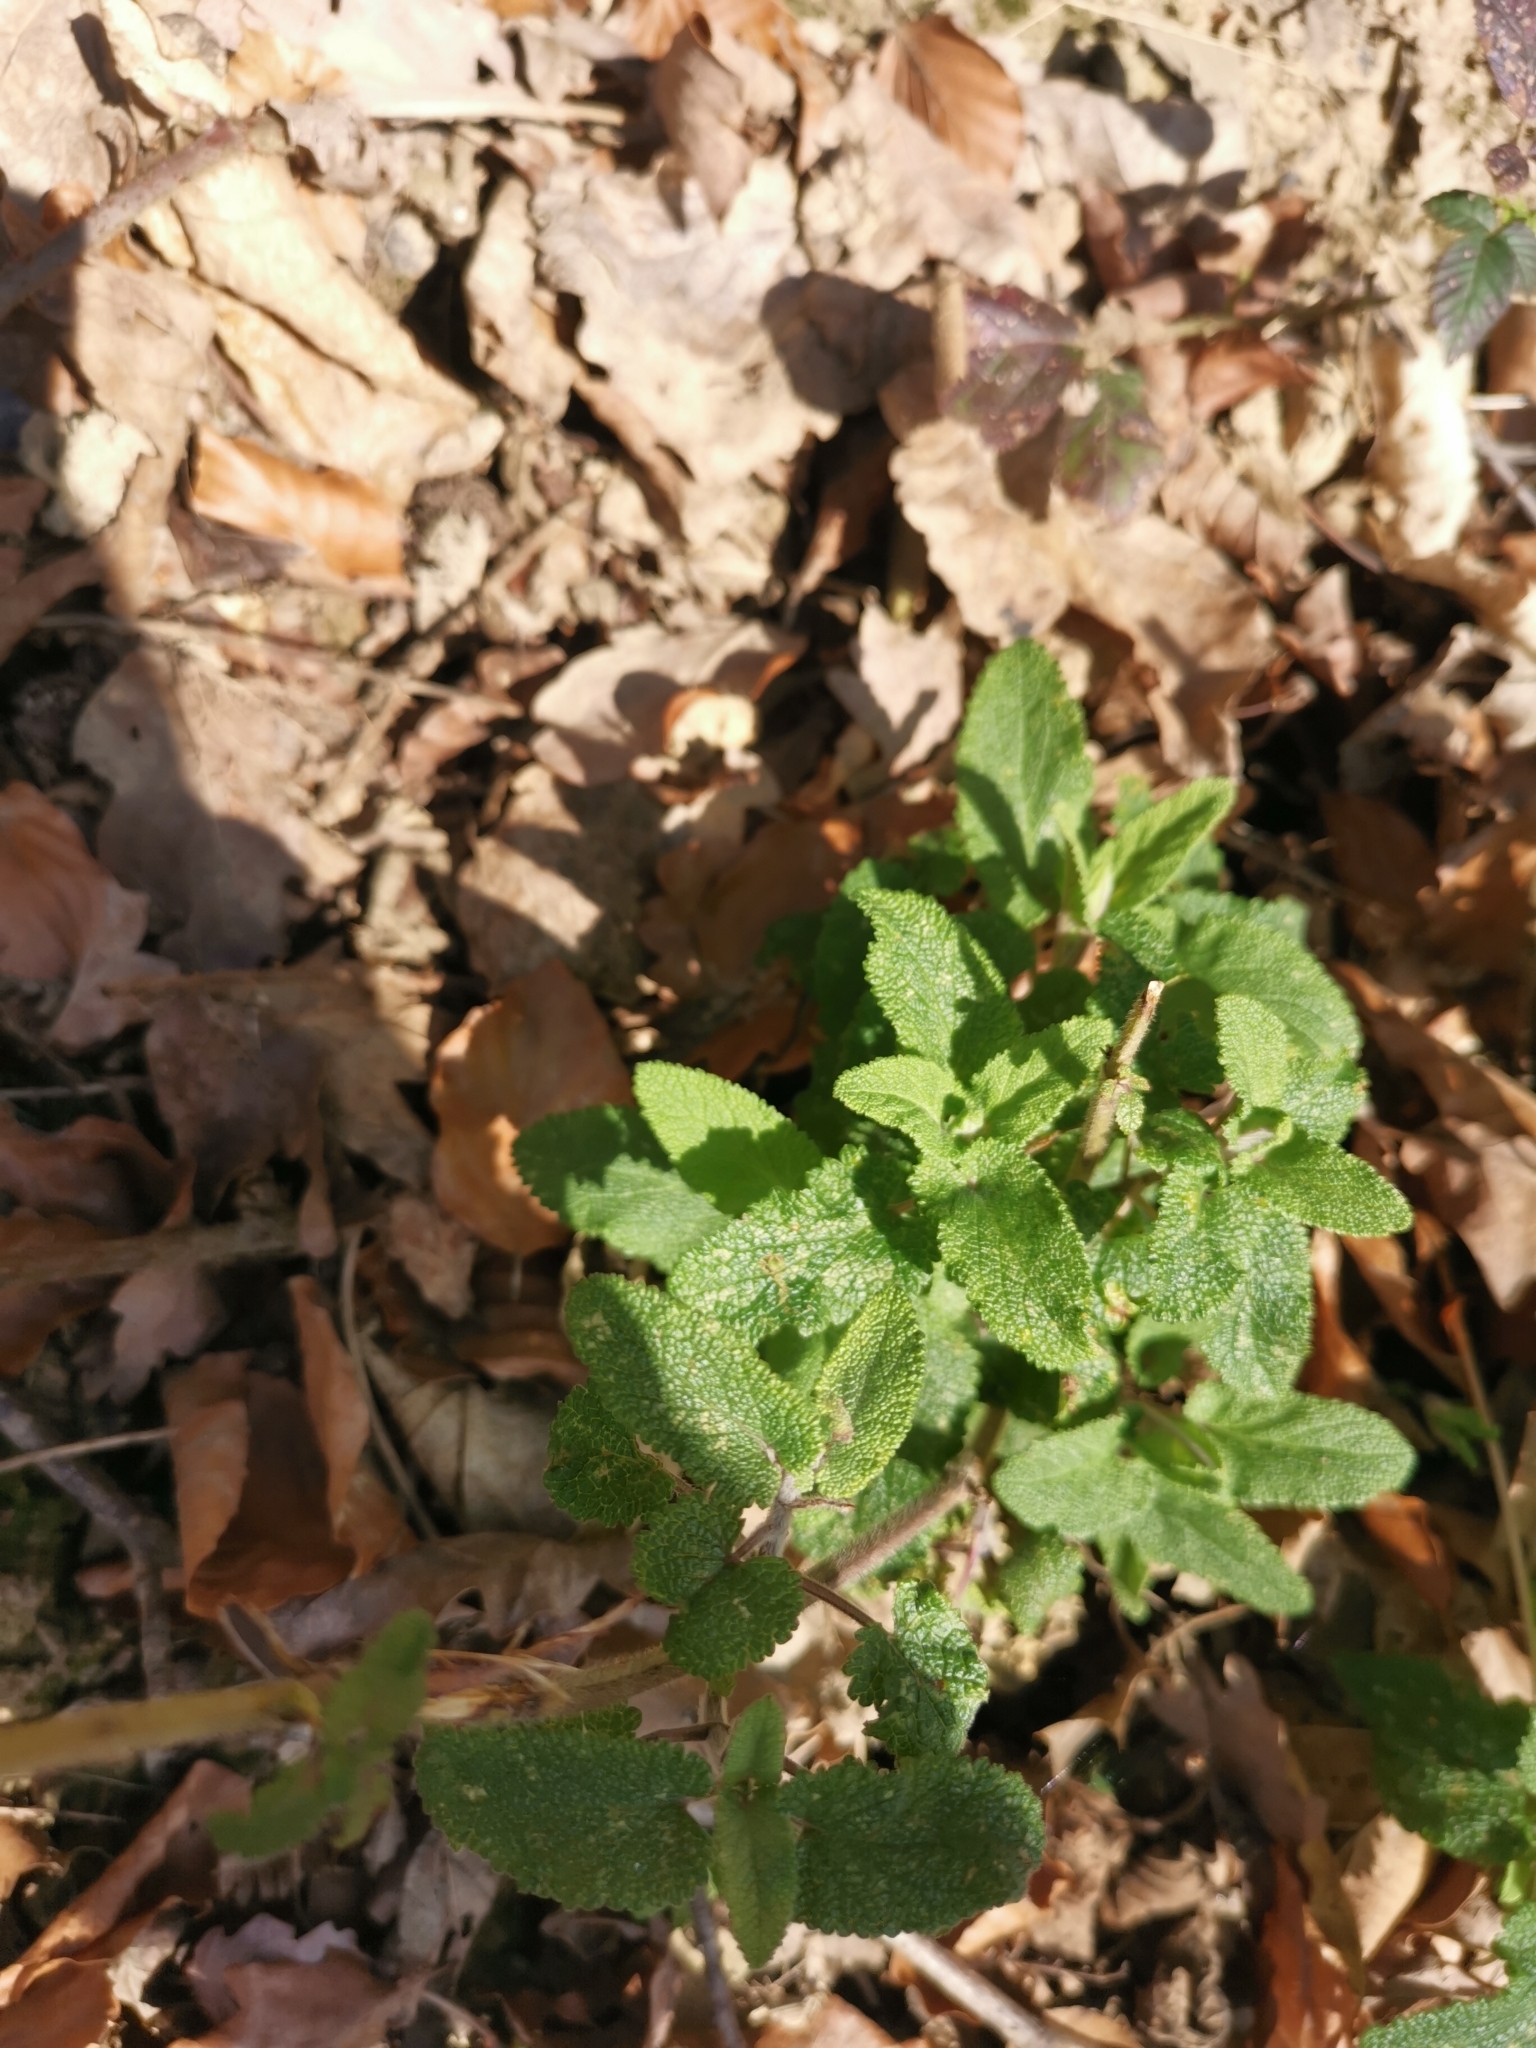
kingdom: Plantae
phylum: Tracheophyta
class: Magnoliopsida
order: Lamiales
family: Lamiaceae
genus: Teucrium
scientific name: Teucrium scorodonia
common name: Woodland germander
